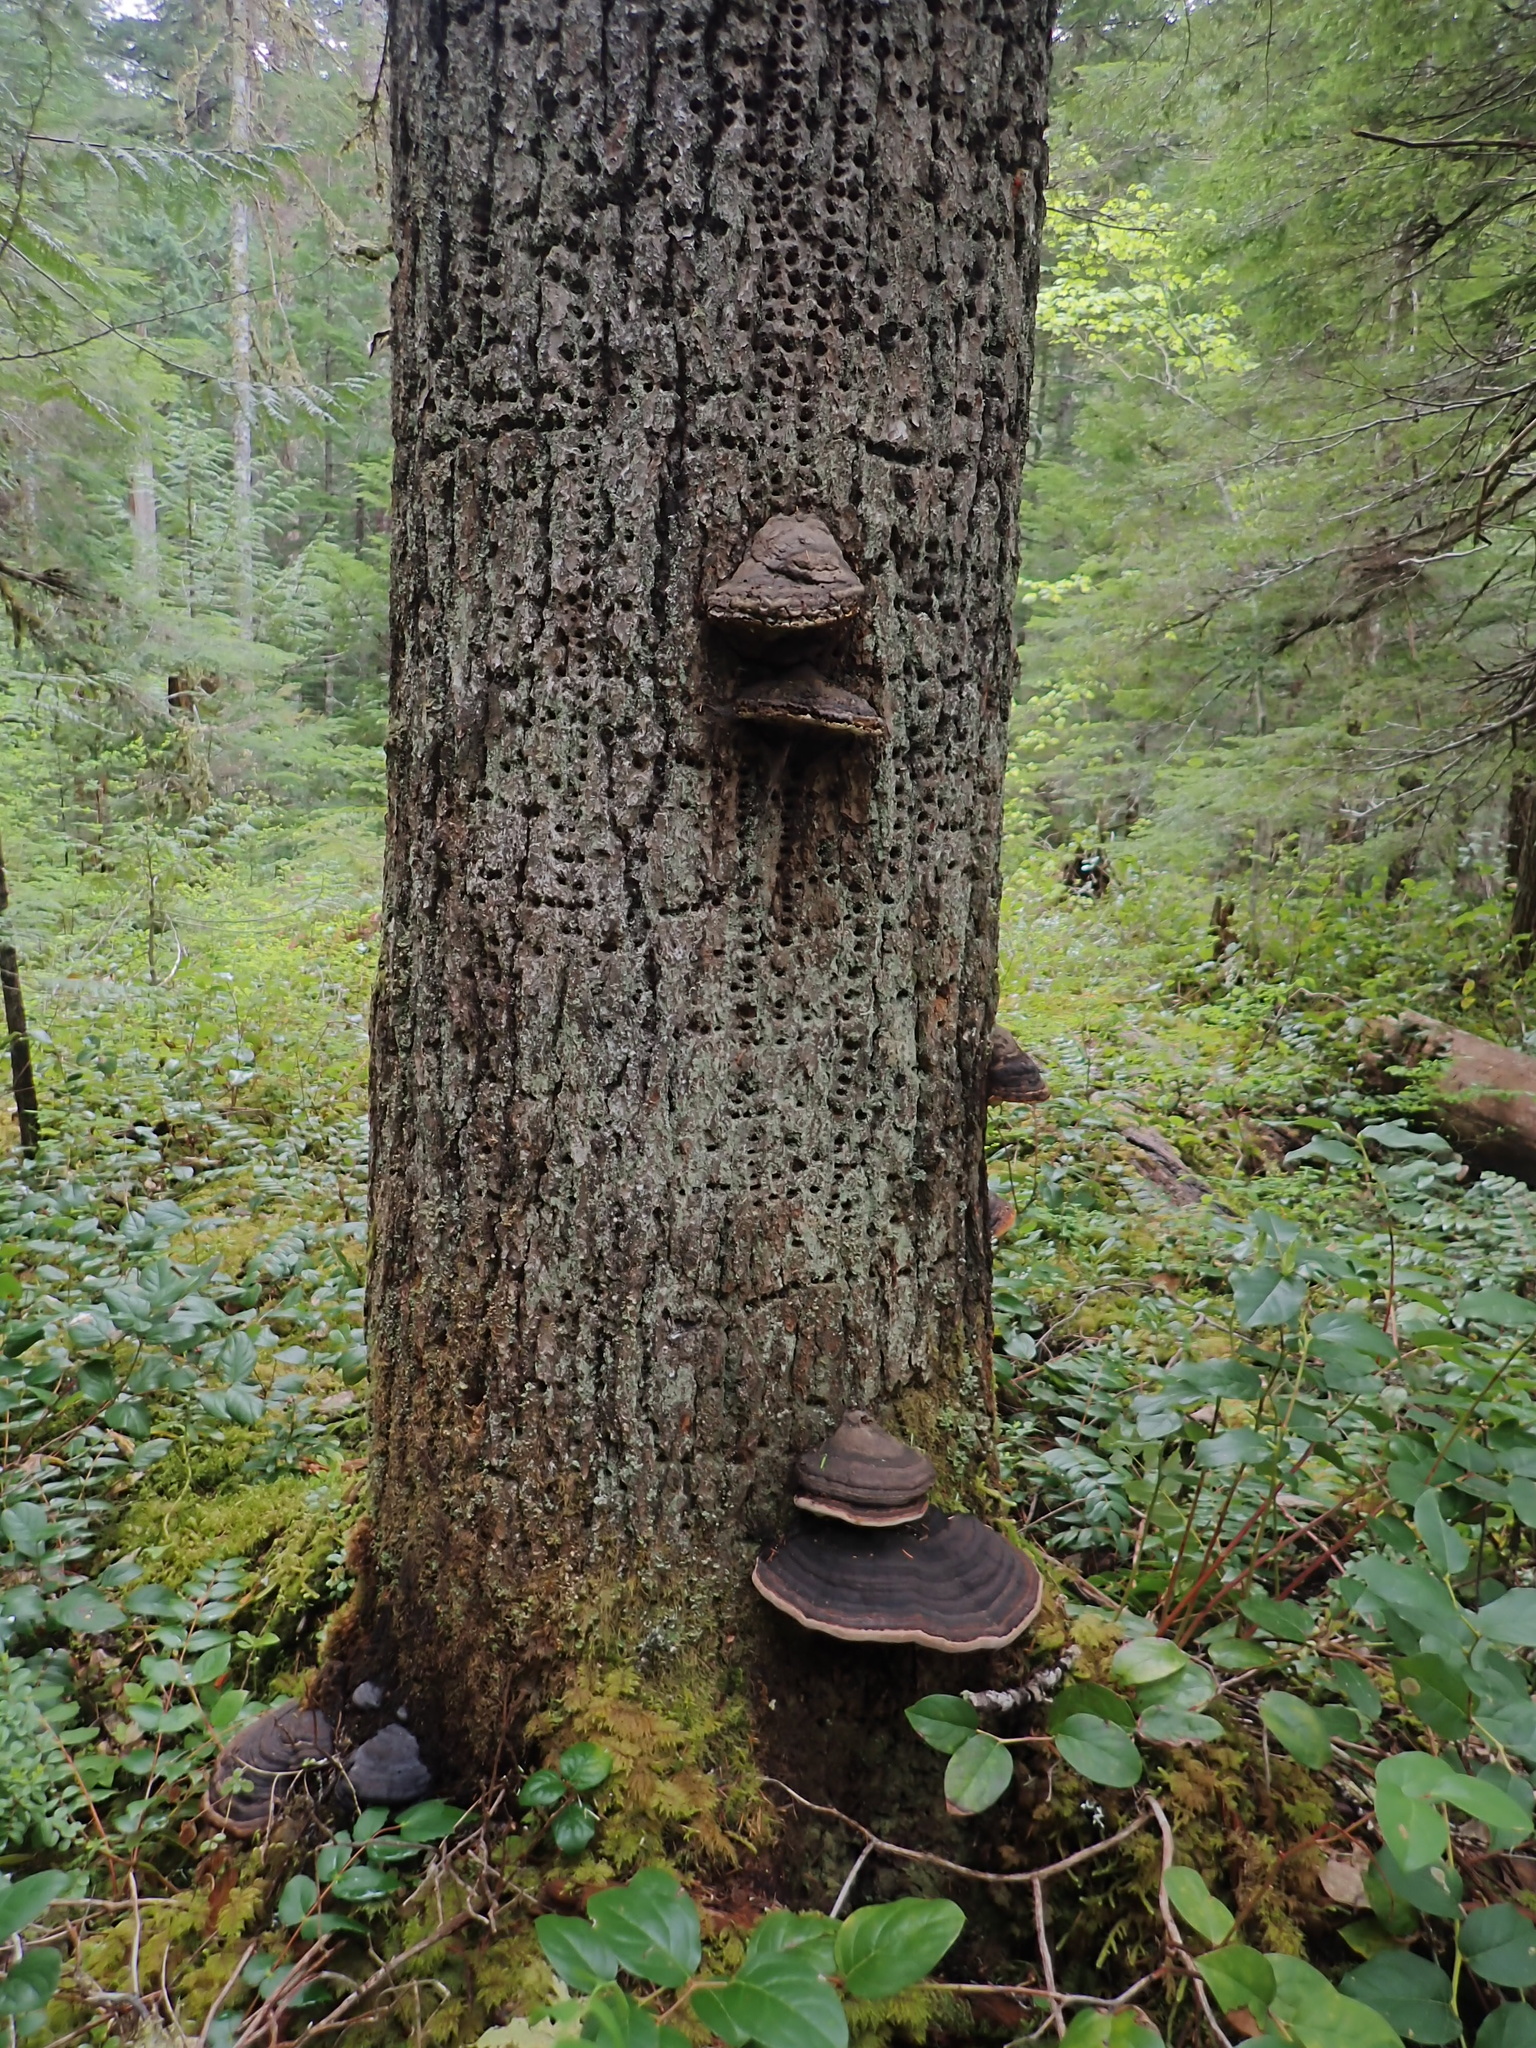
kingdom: Fungi
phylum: Basidiomycota
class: Agaricomycetes
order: Polyporales
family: Fomitopsidaceae
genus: Fomitopsis
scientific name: Fomitopsis ochracea
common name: American brown fomitopsis
